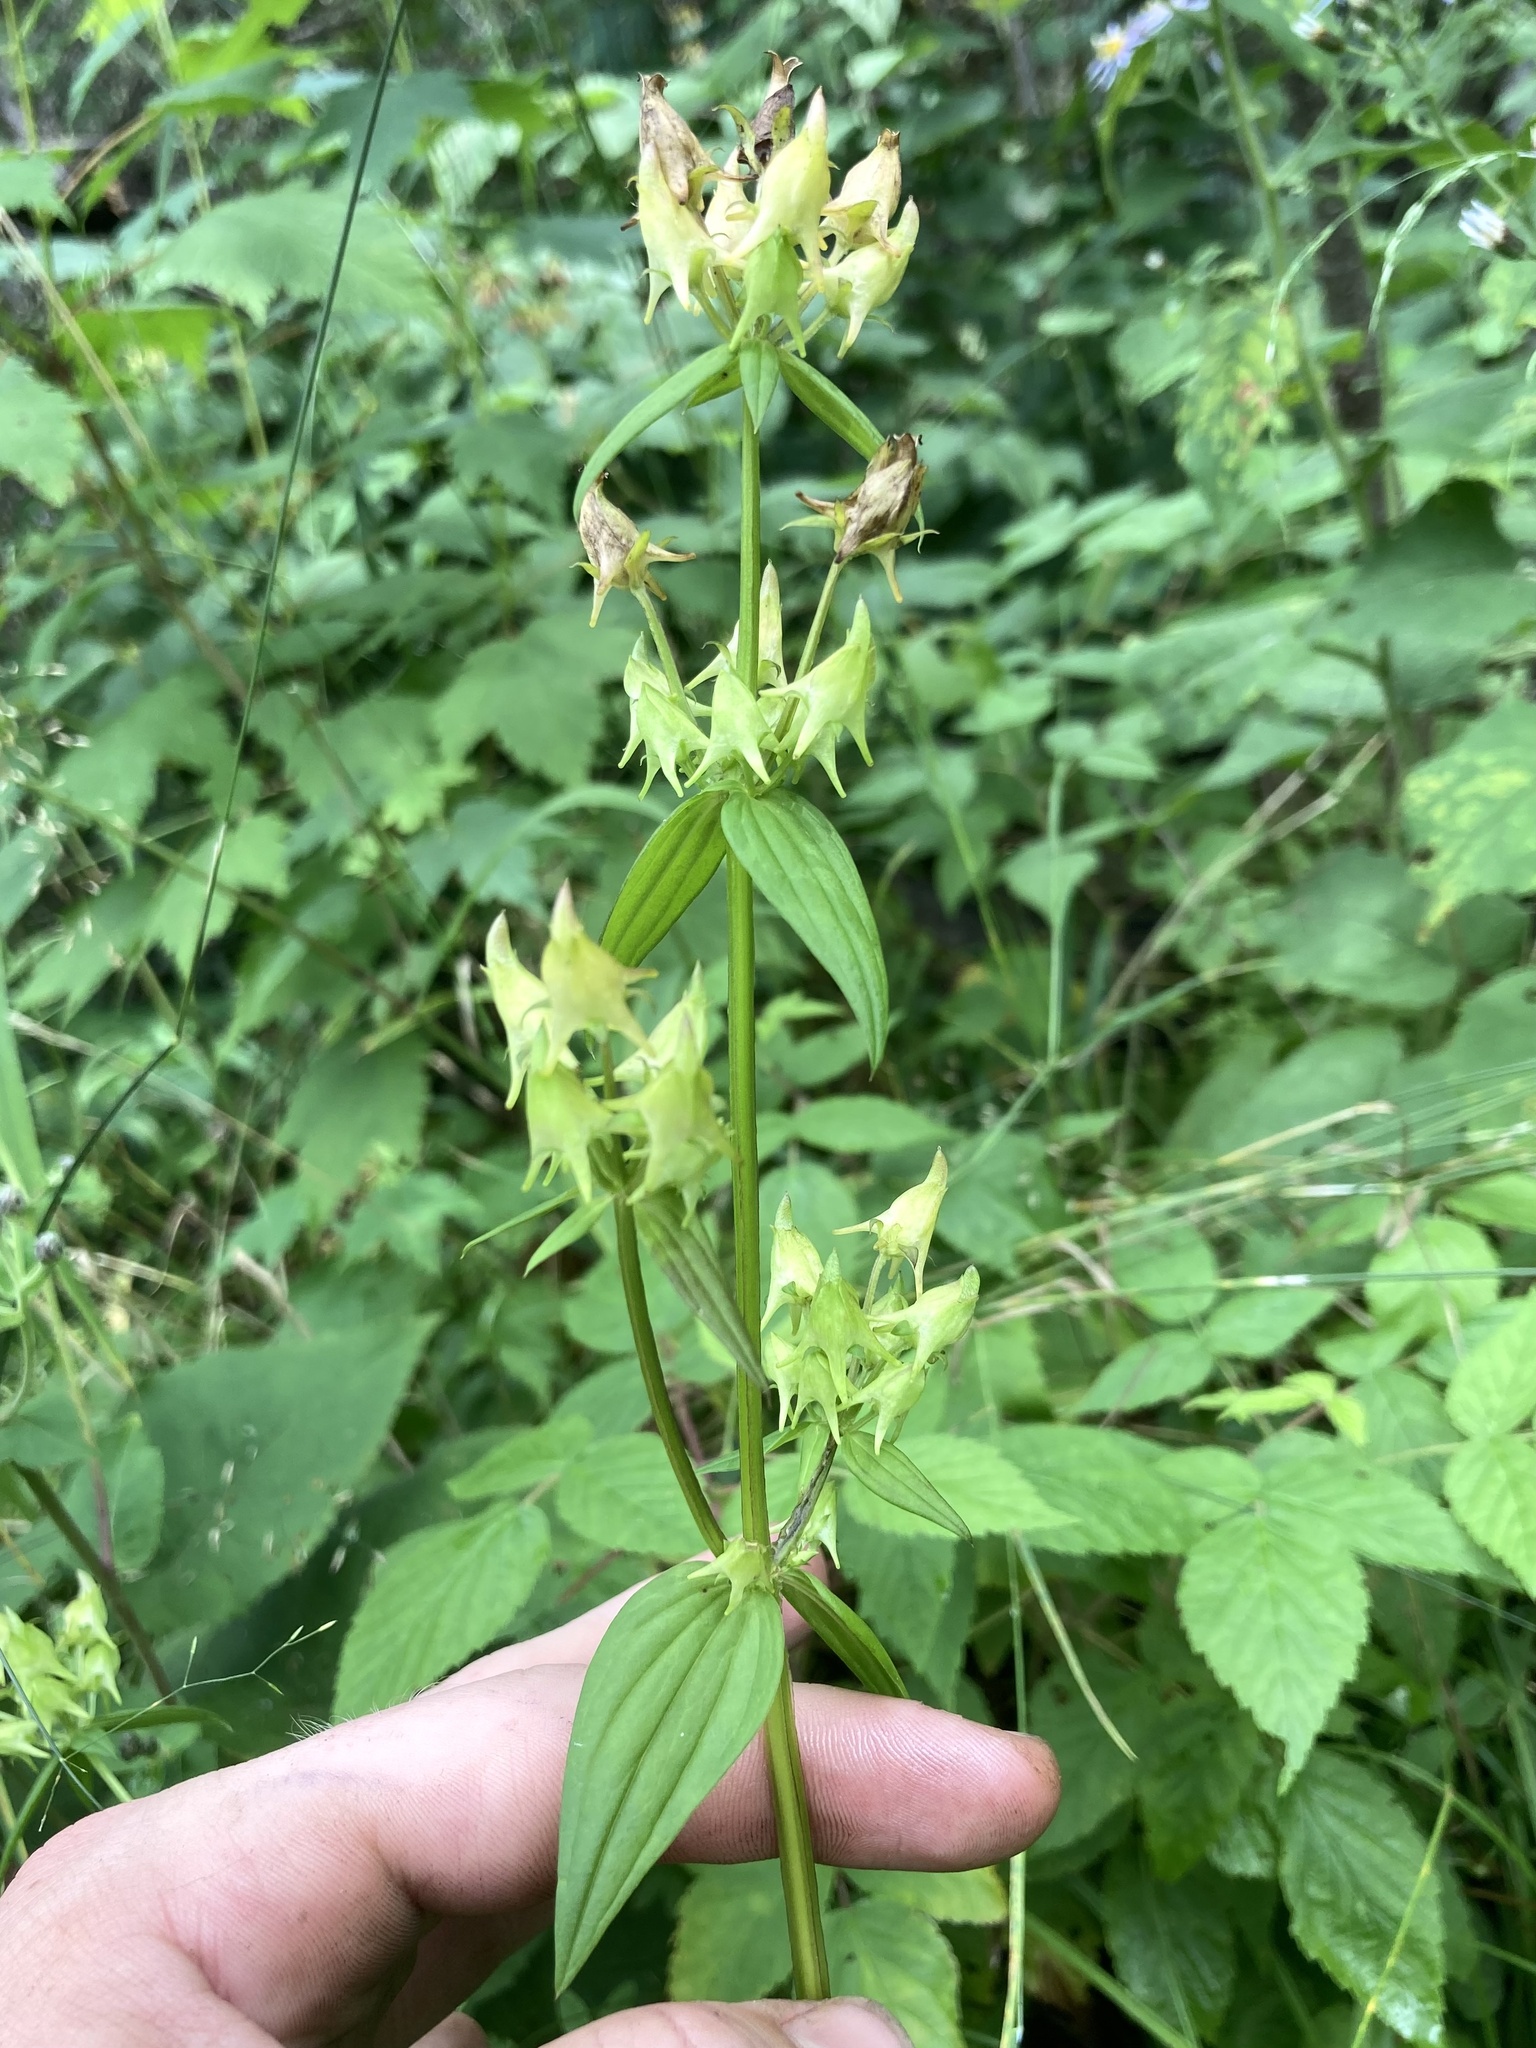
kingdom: Plantae
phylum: Tracheophyta
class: Magnoliopsida
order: Gentianales
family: Gentianaceae
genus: Halenia
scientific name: Halenia deflexa
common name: American spurred gentian
